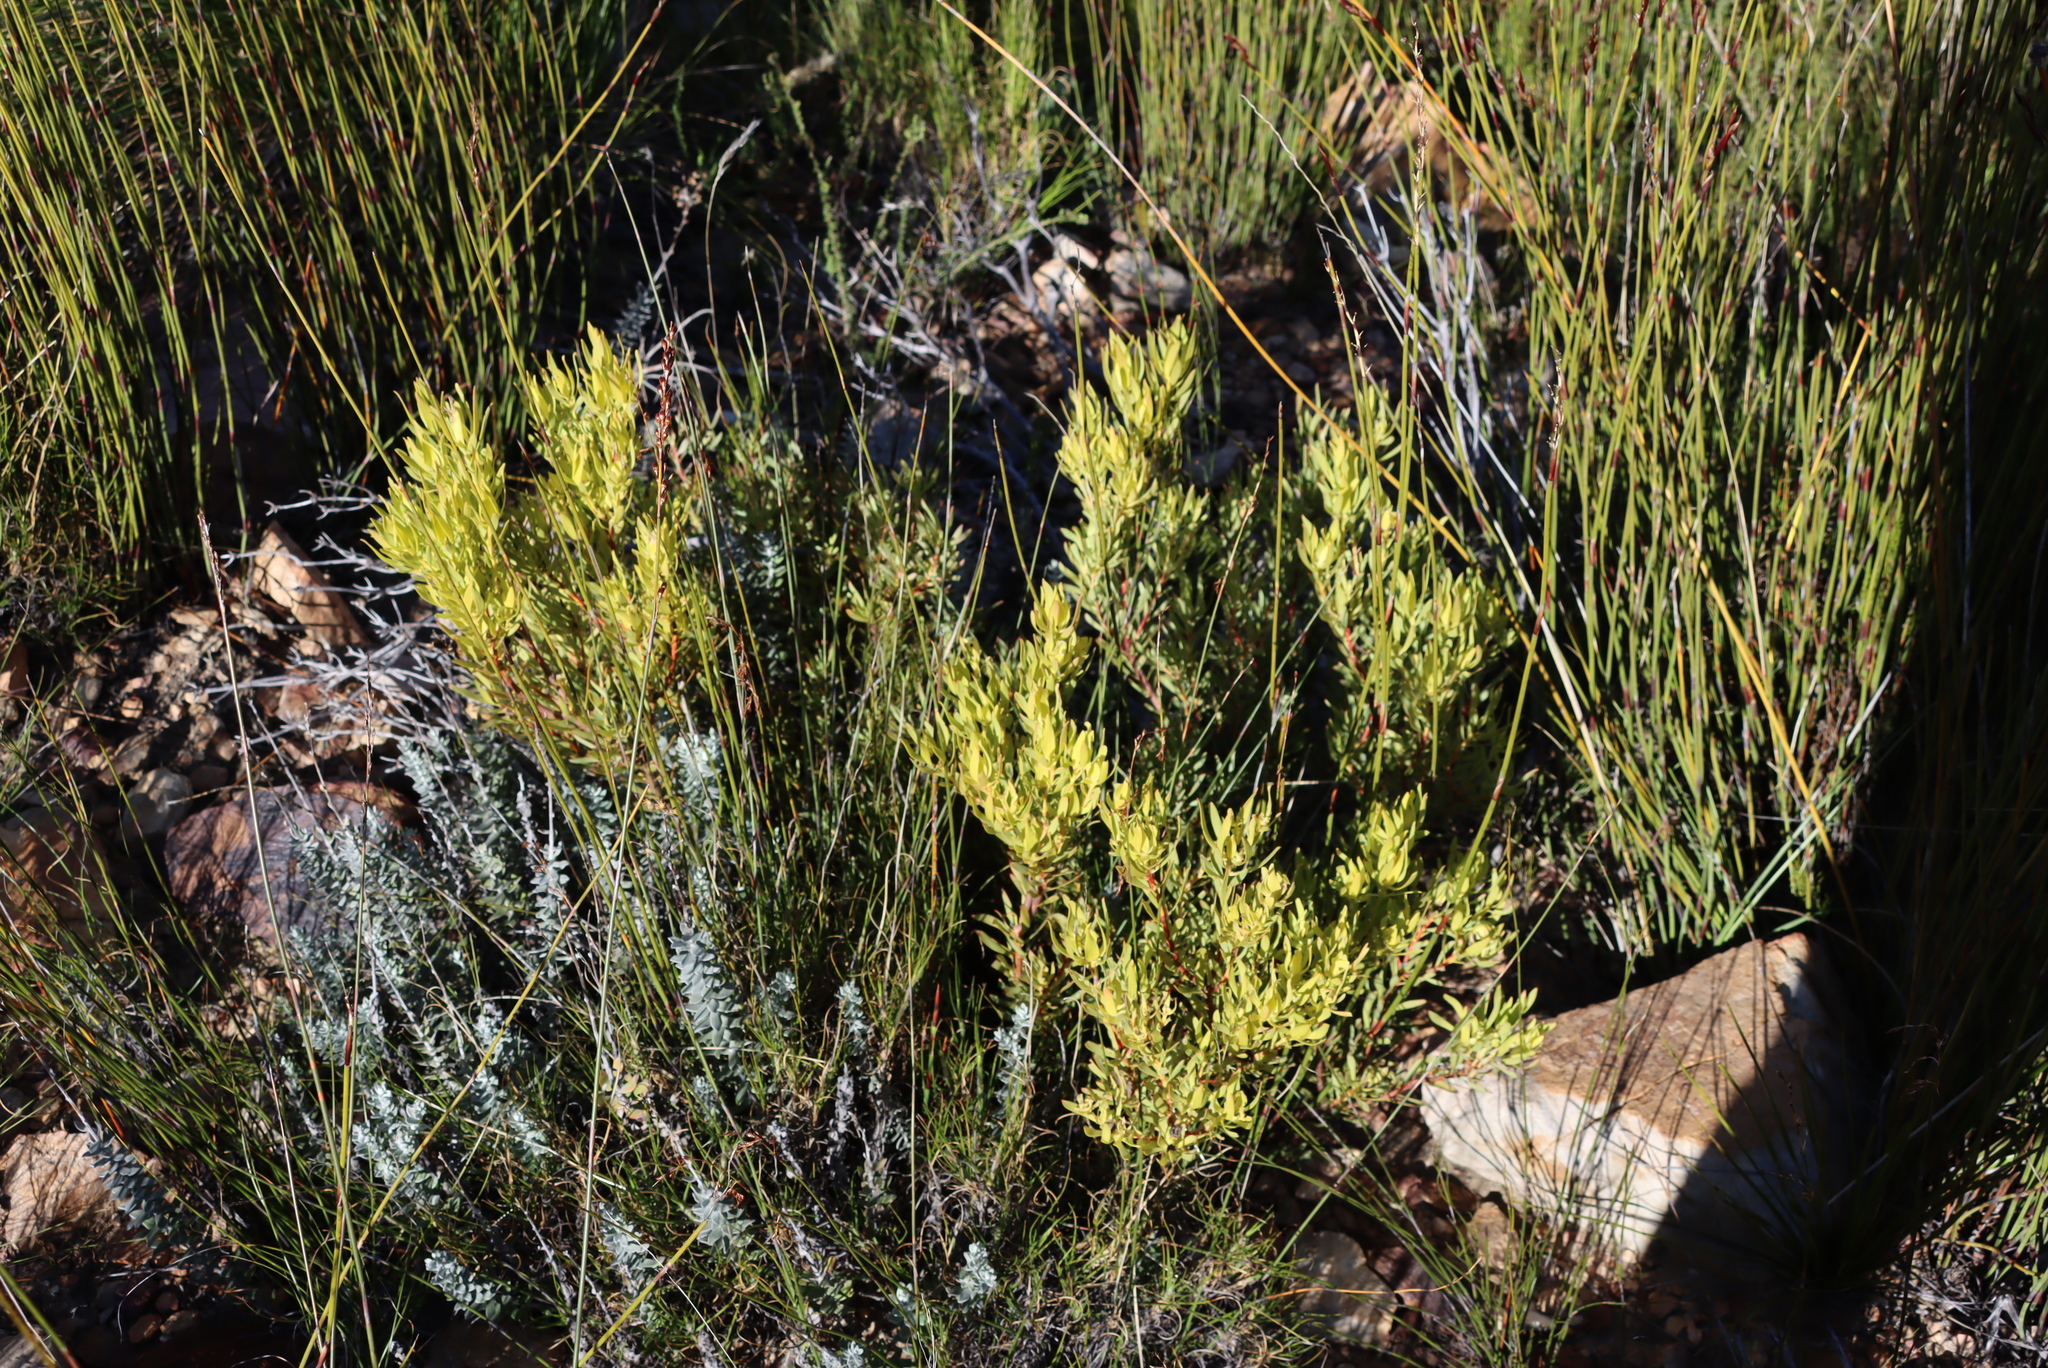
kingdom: Plantae
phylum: Tracheophyta
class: Magnoliopsida
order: Proteales
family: Proteaceae
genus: Leucadendron
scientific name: Leucadendron salignum
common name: Common sunshine conebush
